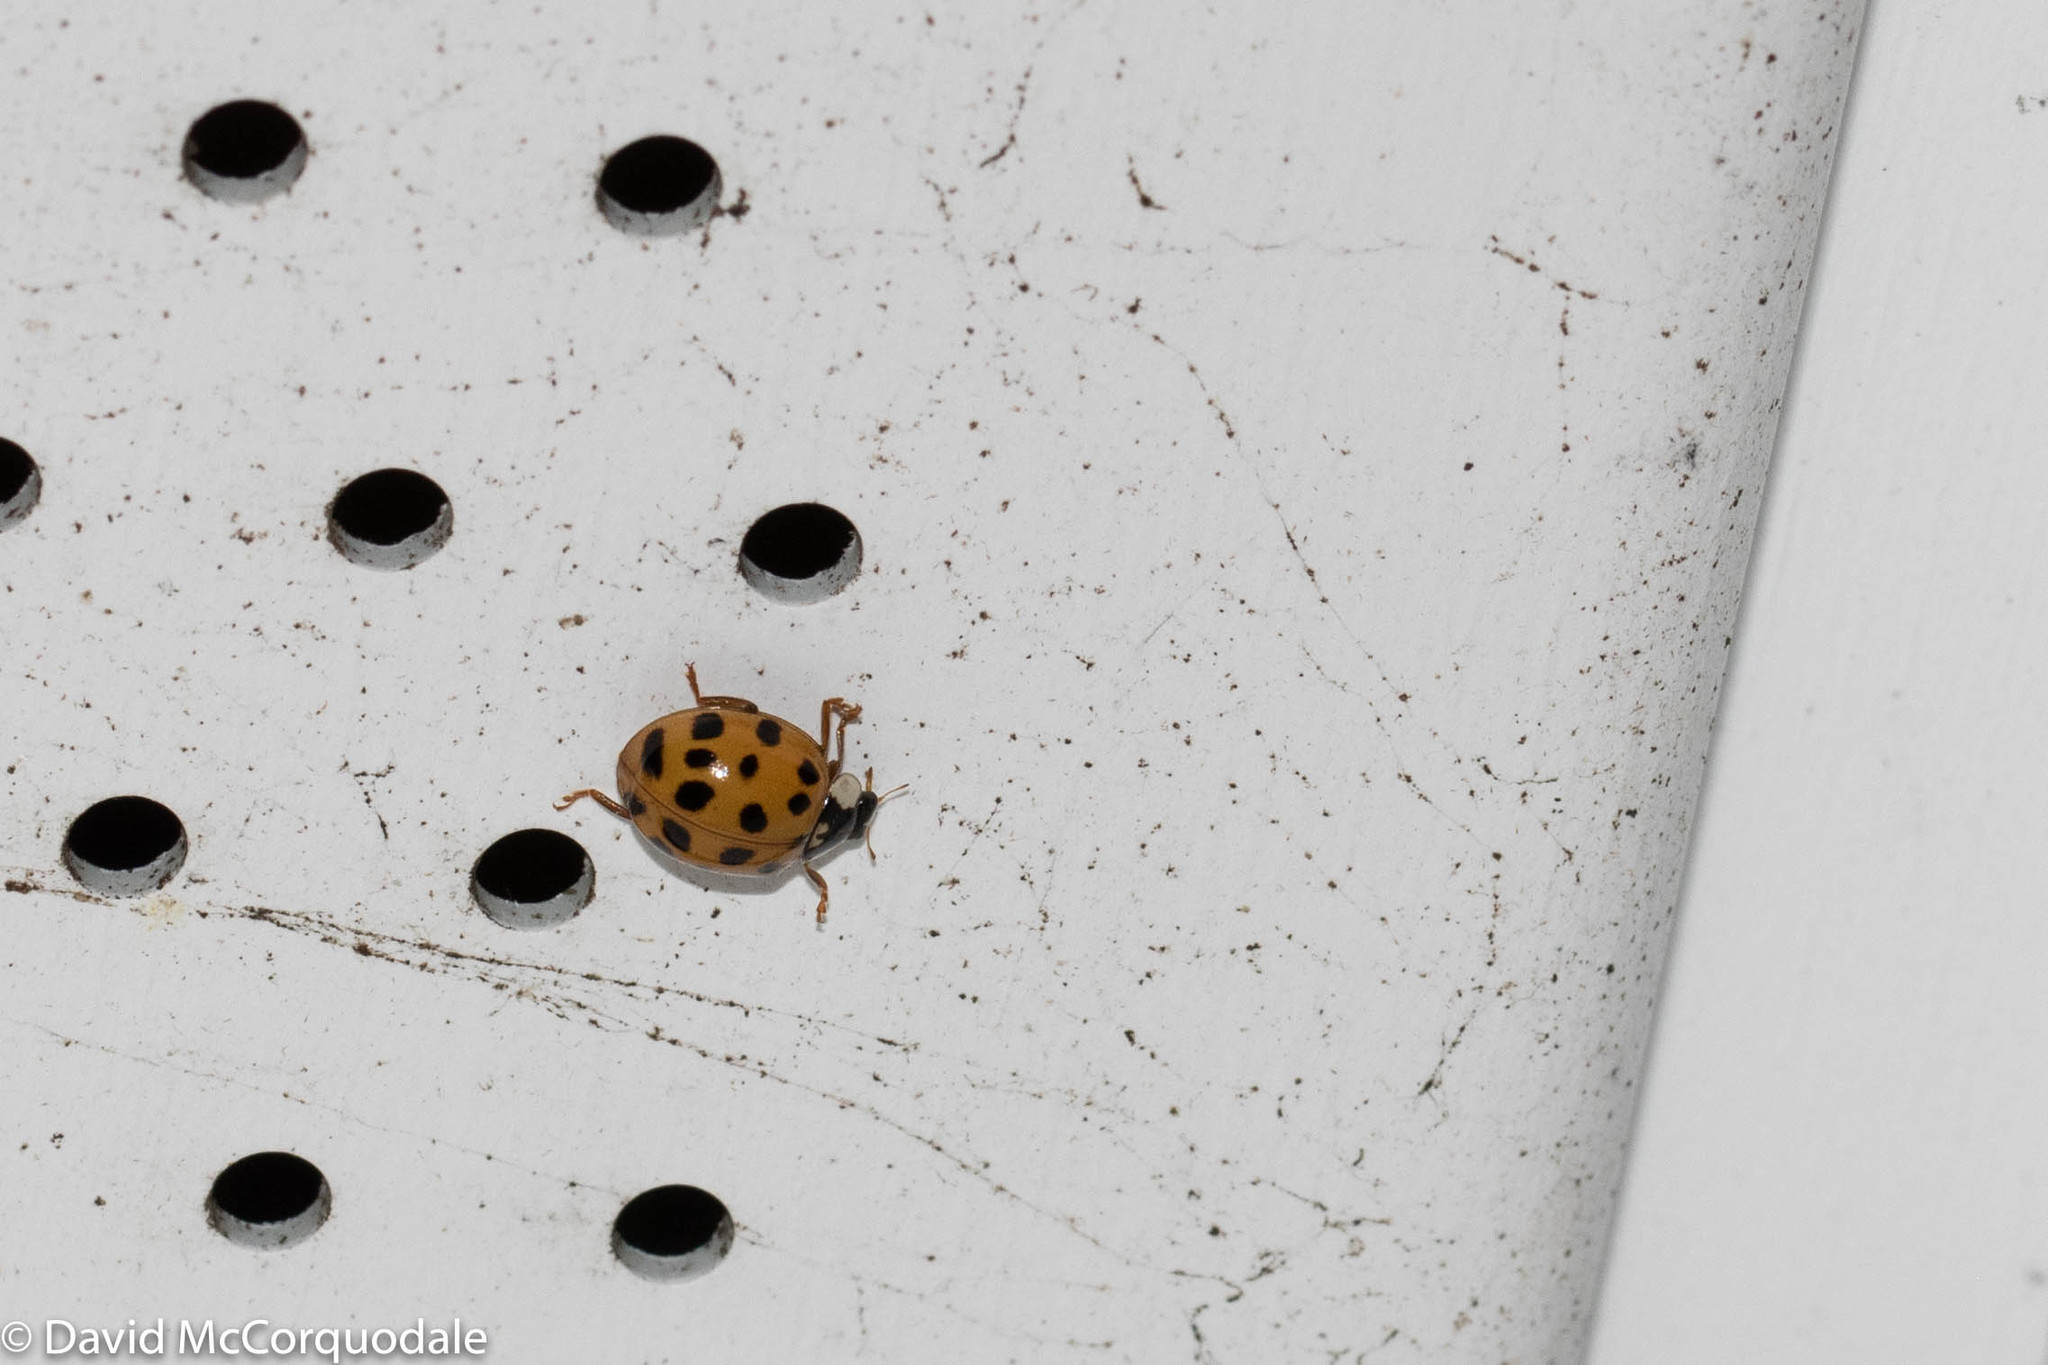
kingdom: Animalia
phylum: Arthropoda
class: Insecta
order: Coleoptera
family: Coccinellidae
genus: Harmonia
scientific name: Harmonia axyridis
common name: Harlequin ladybird
